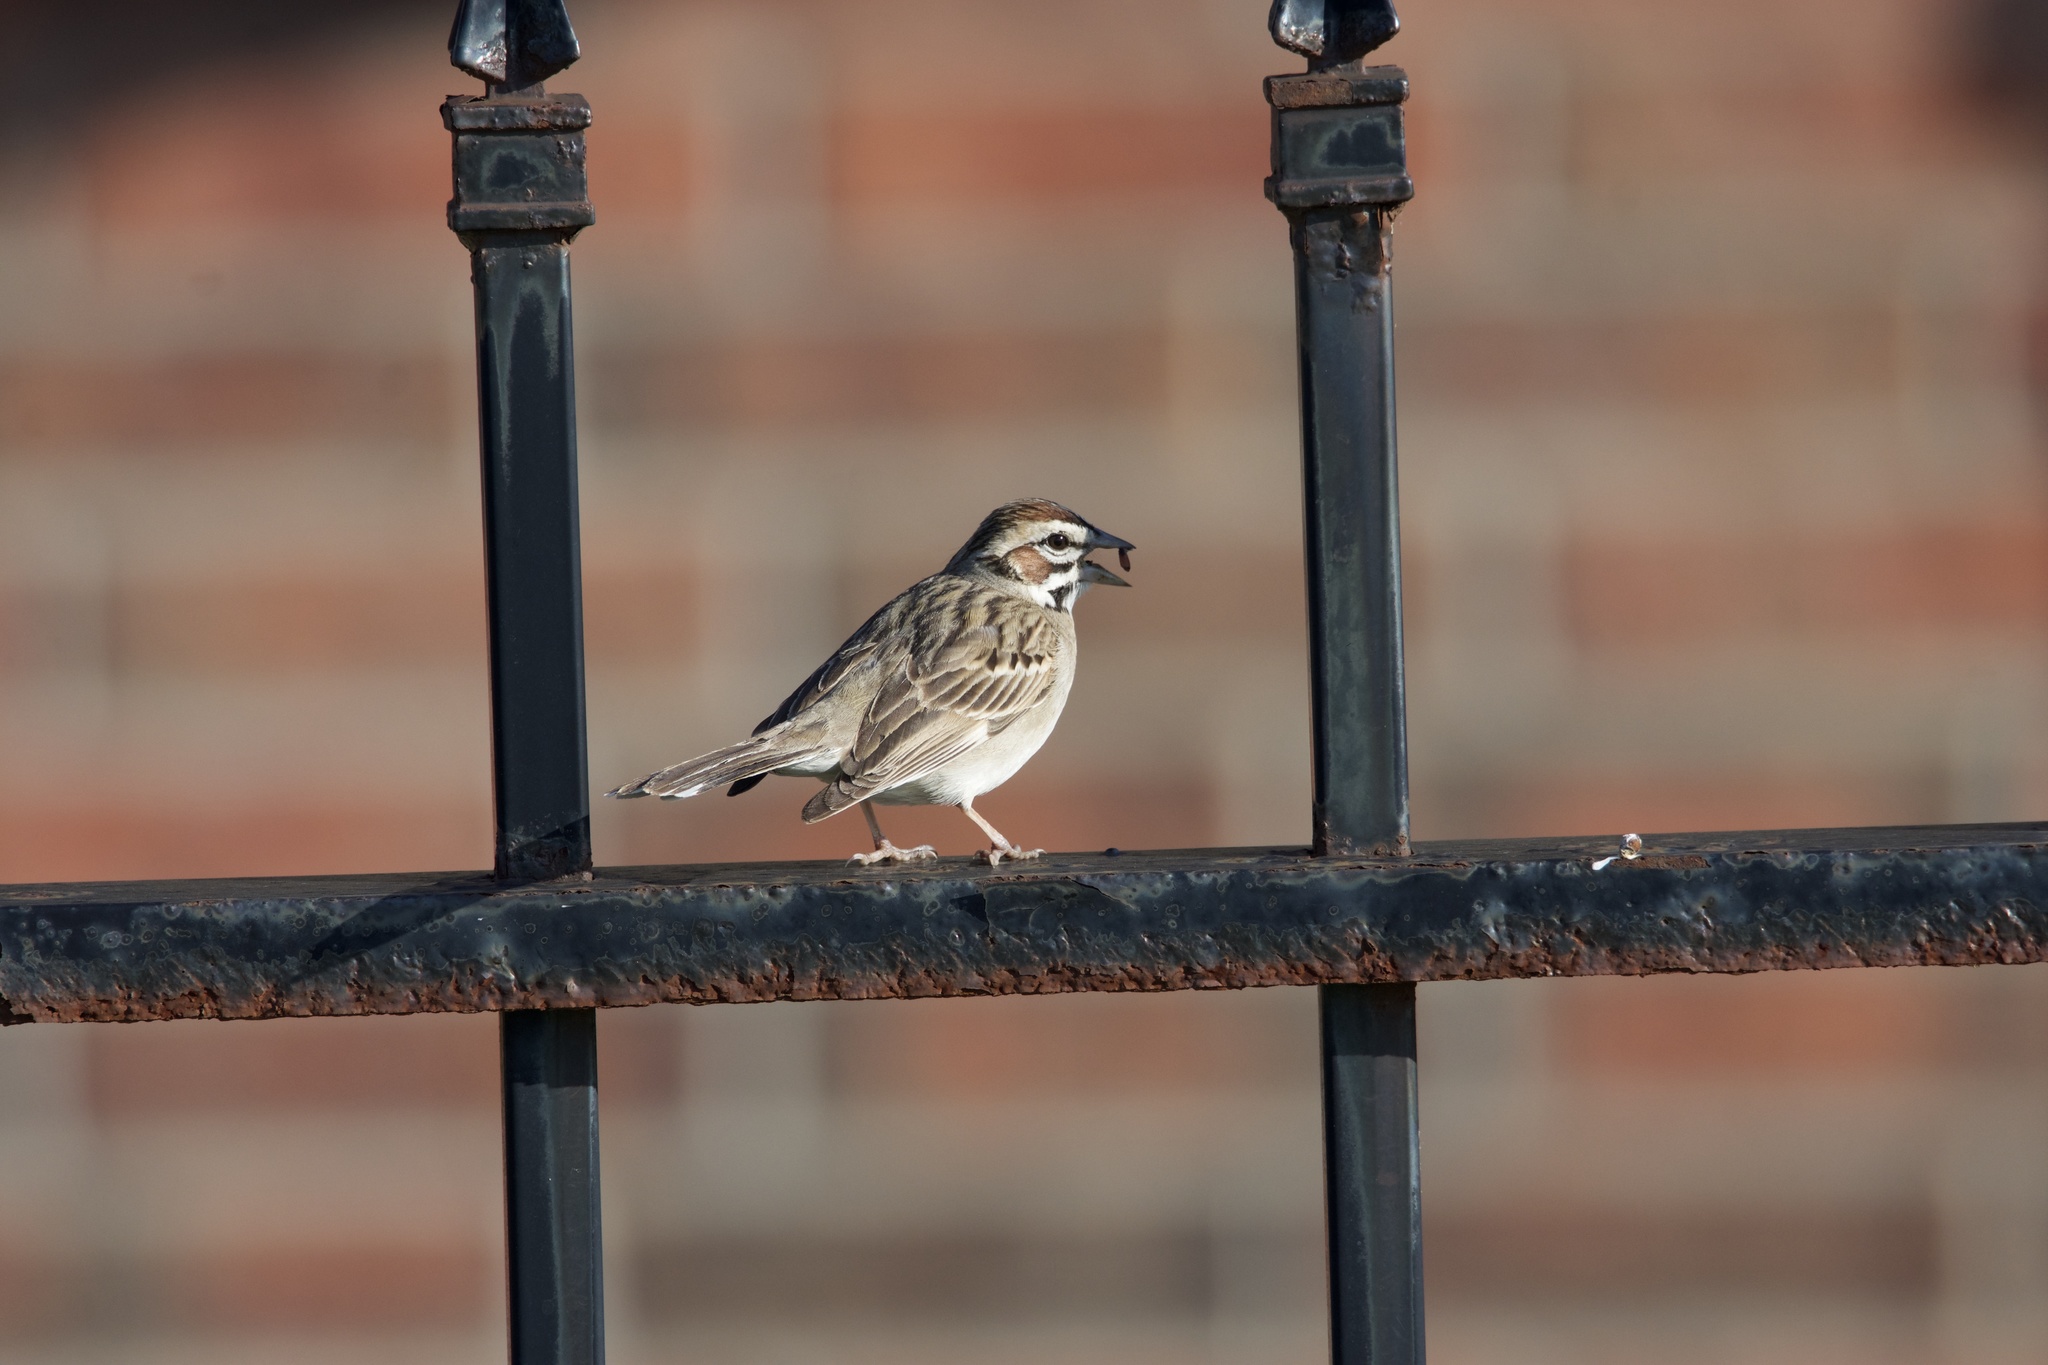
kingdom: Animalia
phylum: Chordata
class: Aves
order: Passeriformes
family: Passerellidae
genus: Chondestes
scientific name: Chondestes grammacus
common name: Lark sparrow
